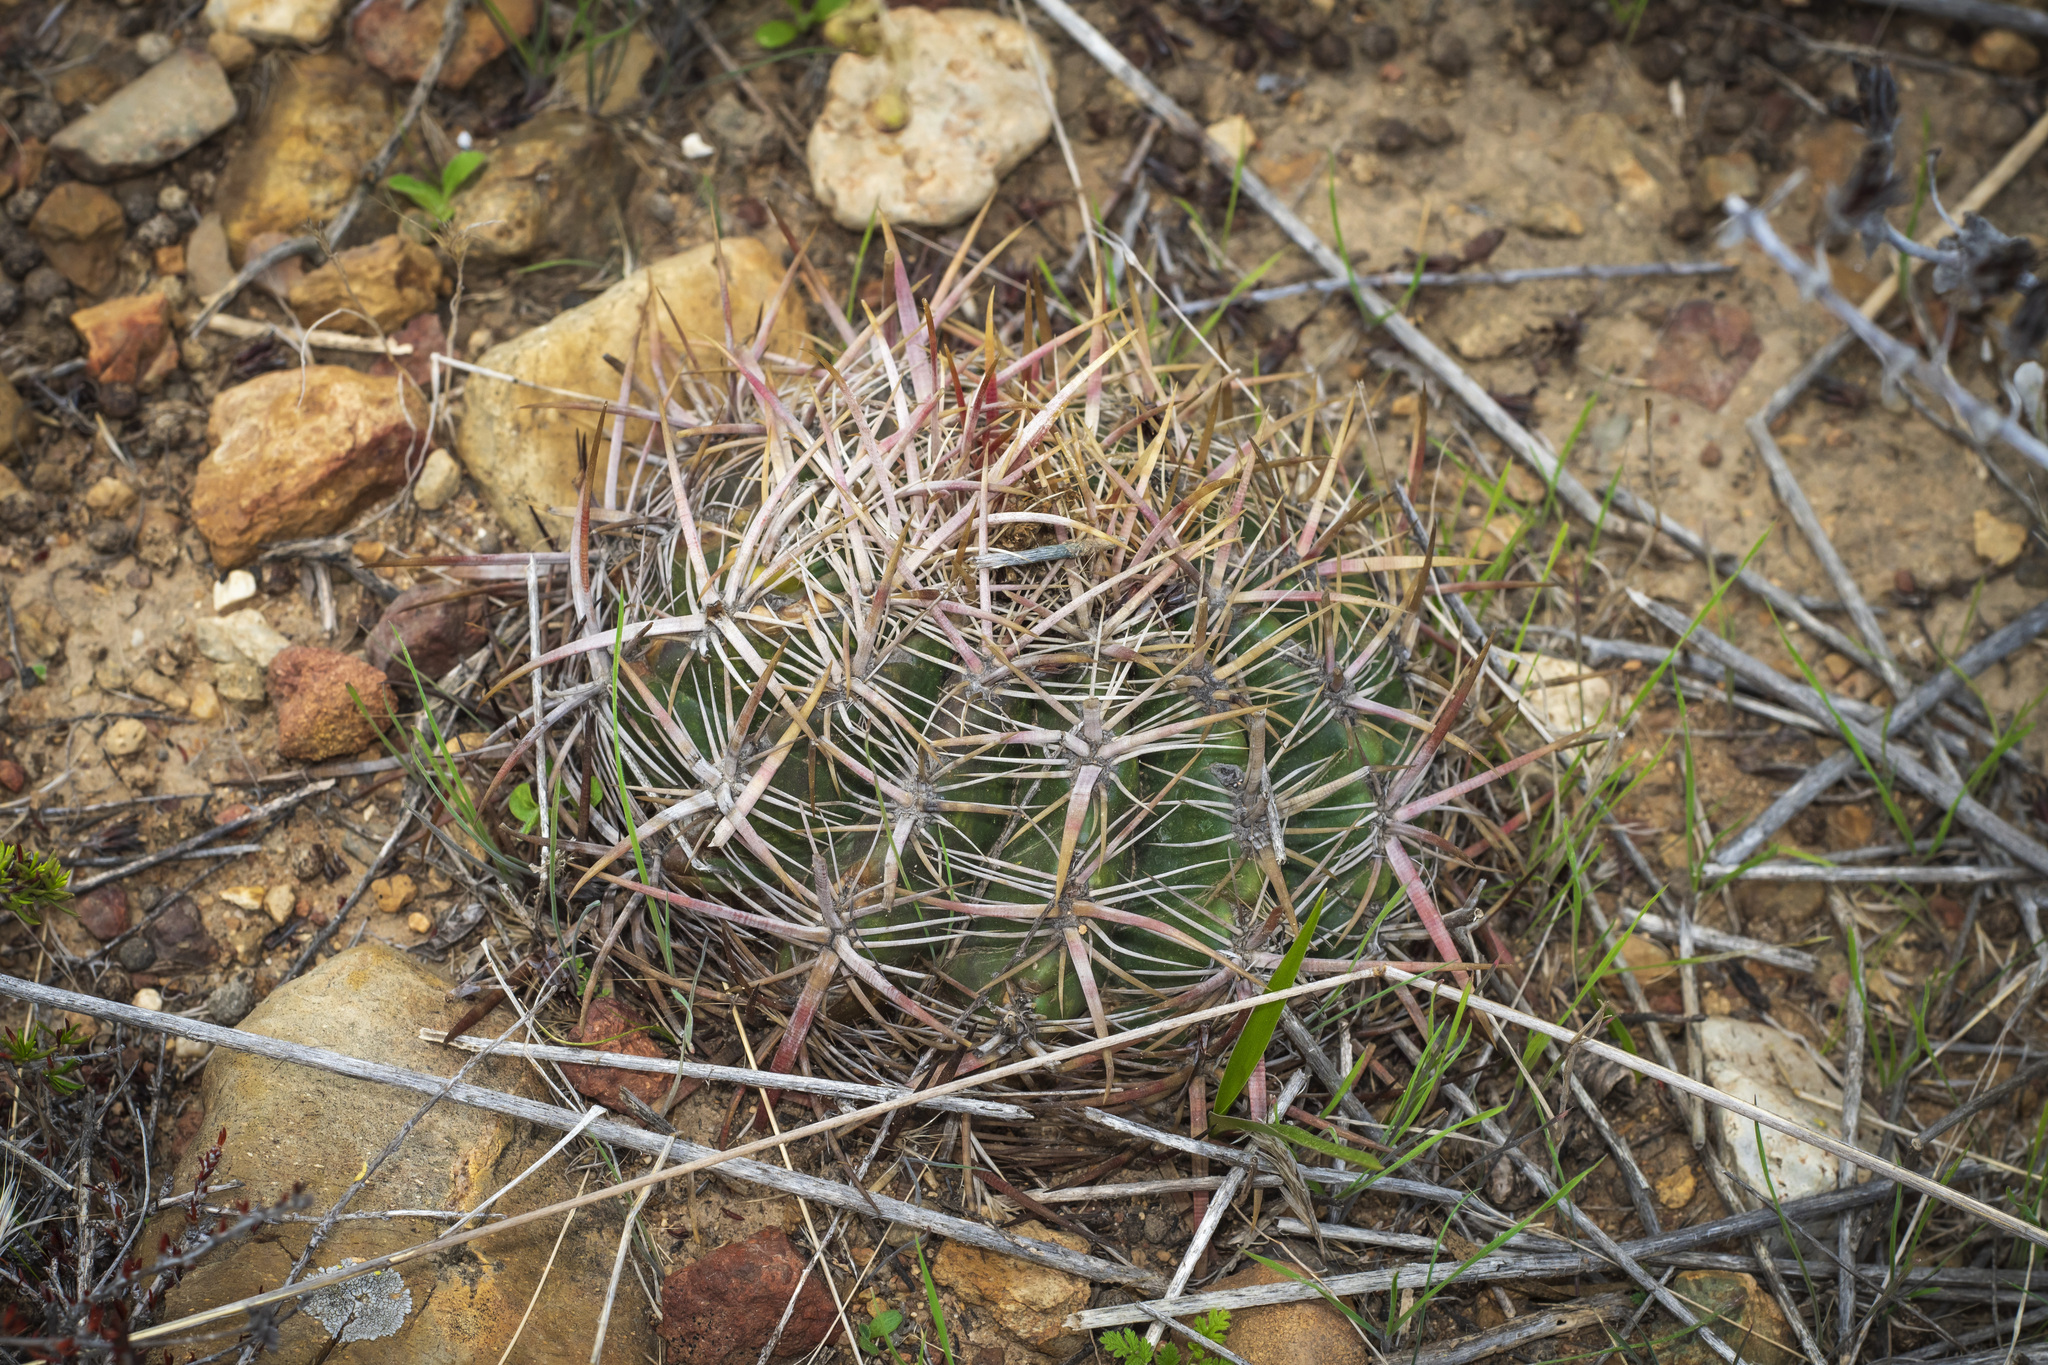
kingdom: Plantae
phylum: Tracheophyta
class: Magnoliopsida
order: Caryophyllales
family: Cactaceae
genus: Ferocactus
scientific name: Ferocactus viridescens
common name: San diego barrel cactus
